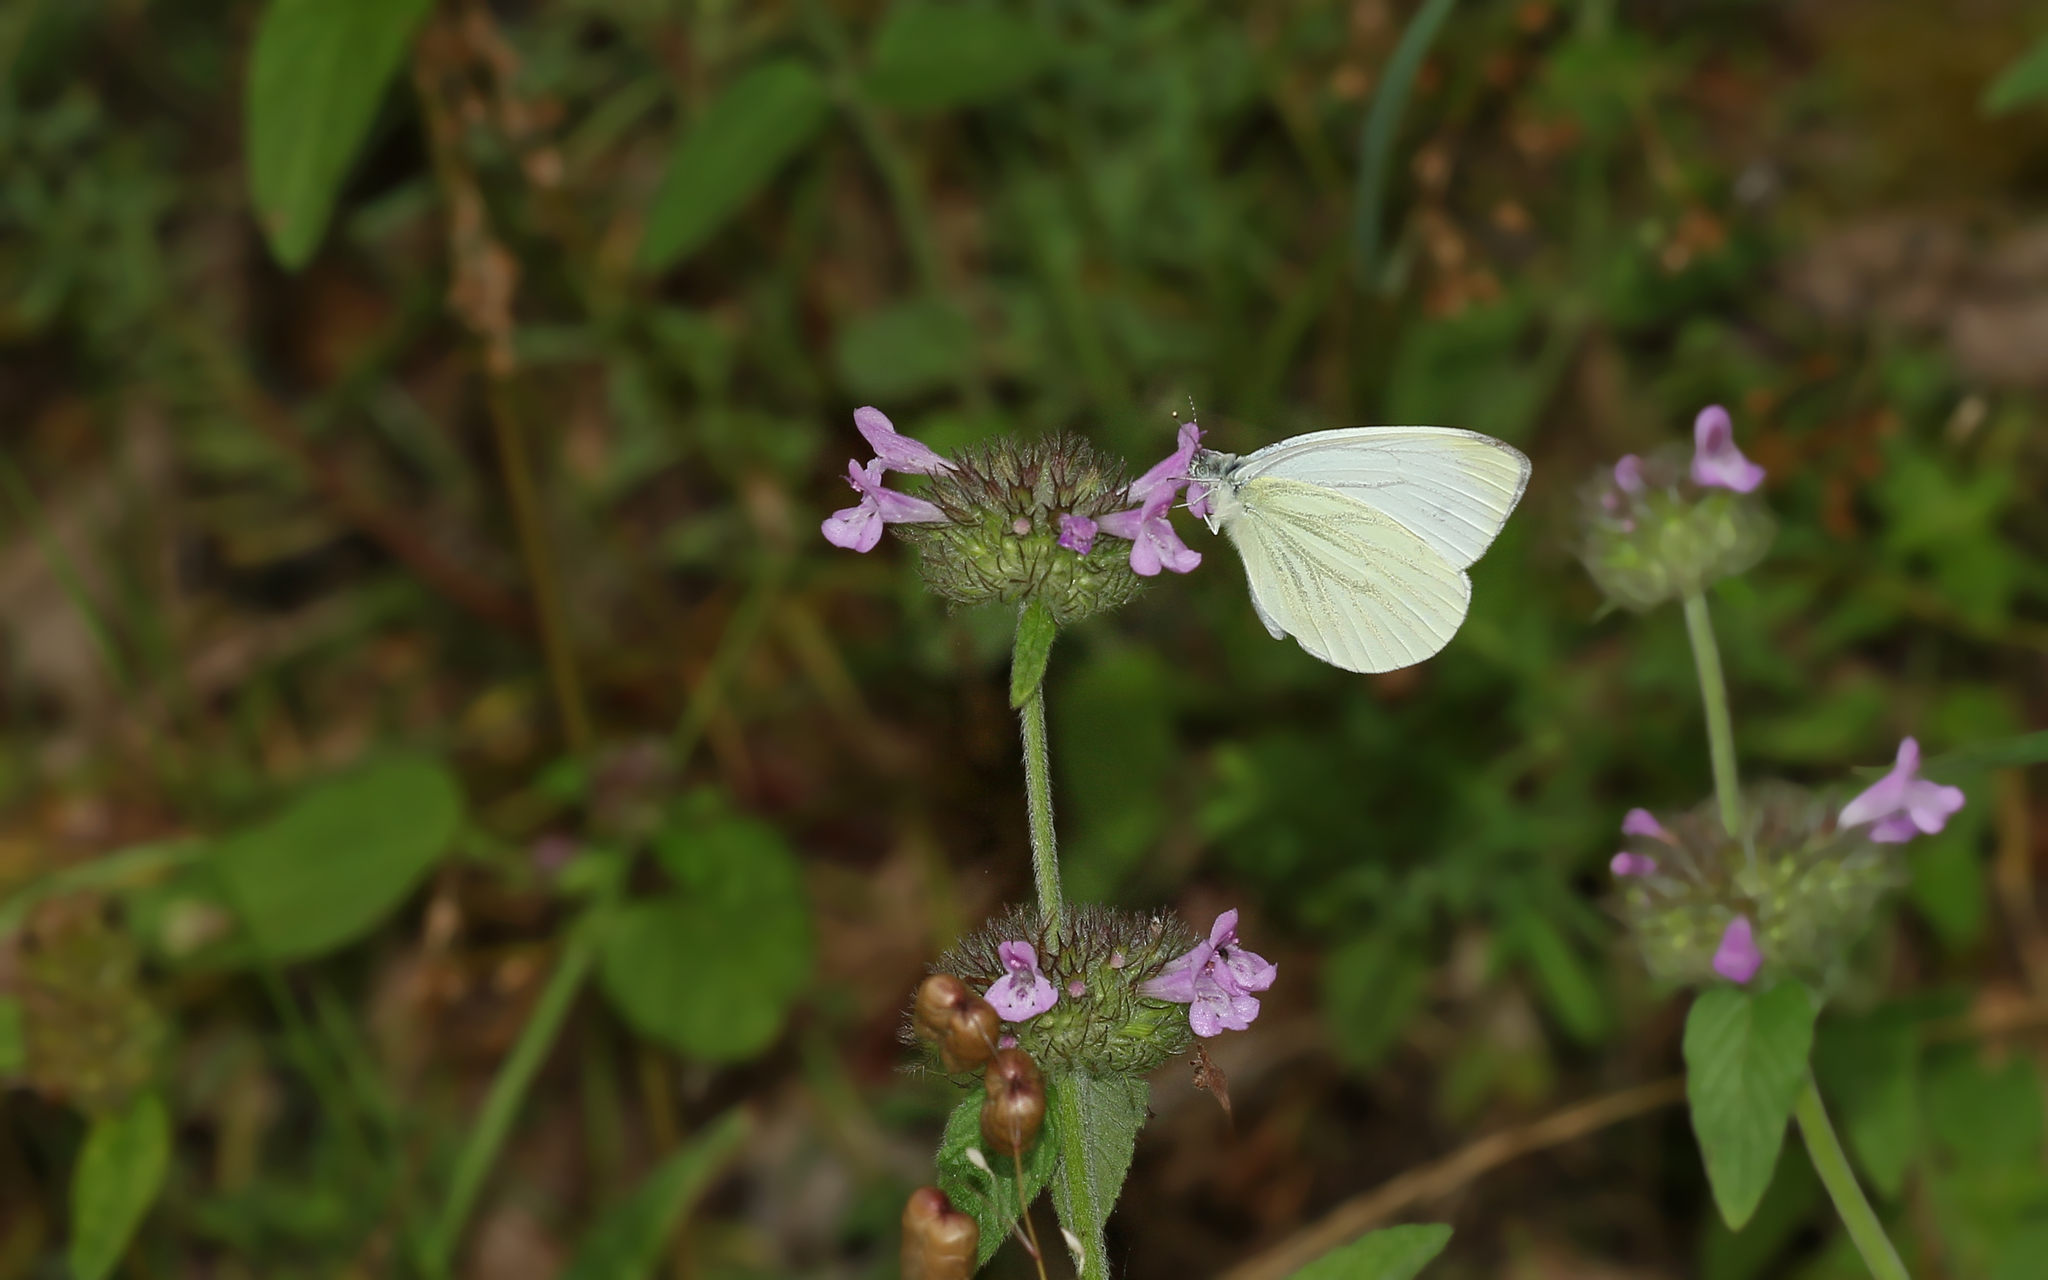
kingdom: Animalia
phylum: Arthropoda
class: Insecta
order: Lepidoptera
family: Pieridae
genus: Pieris
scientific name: Pieris napi
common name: Green-veined white
